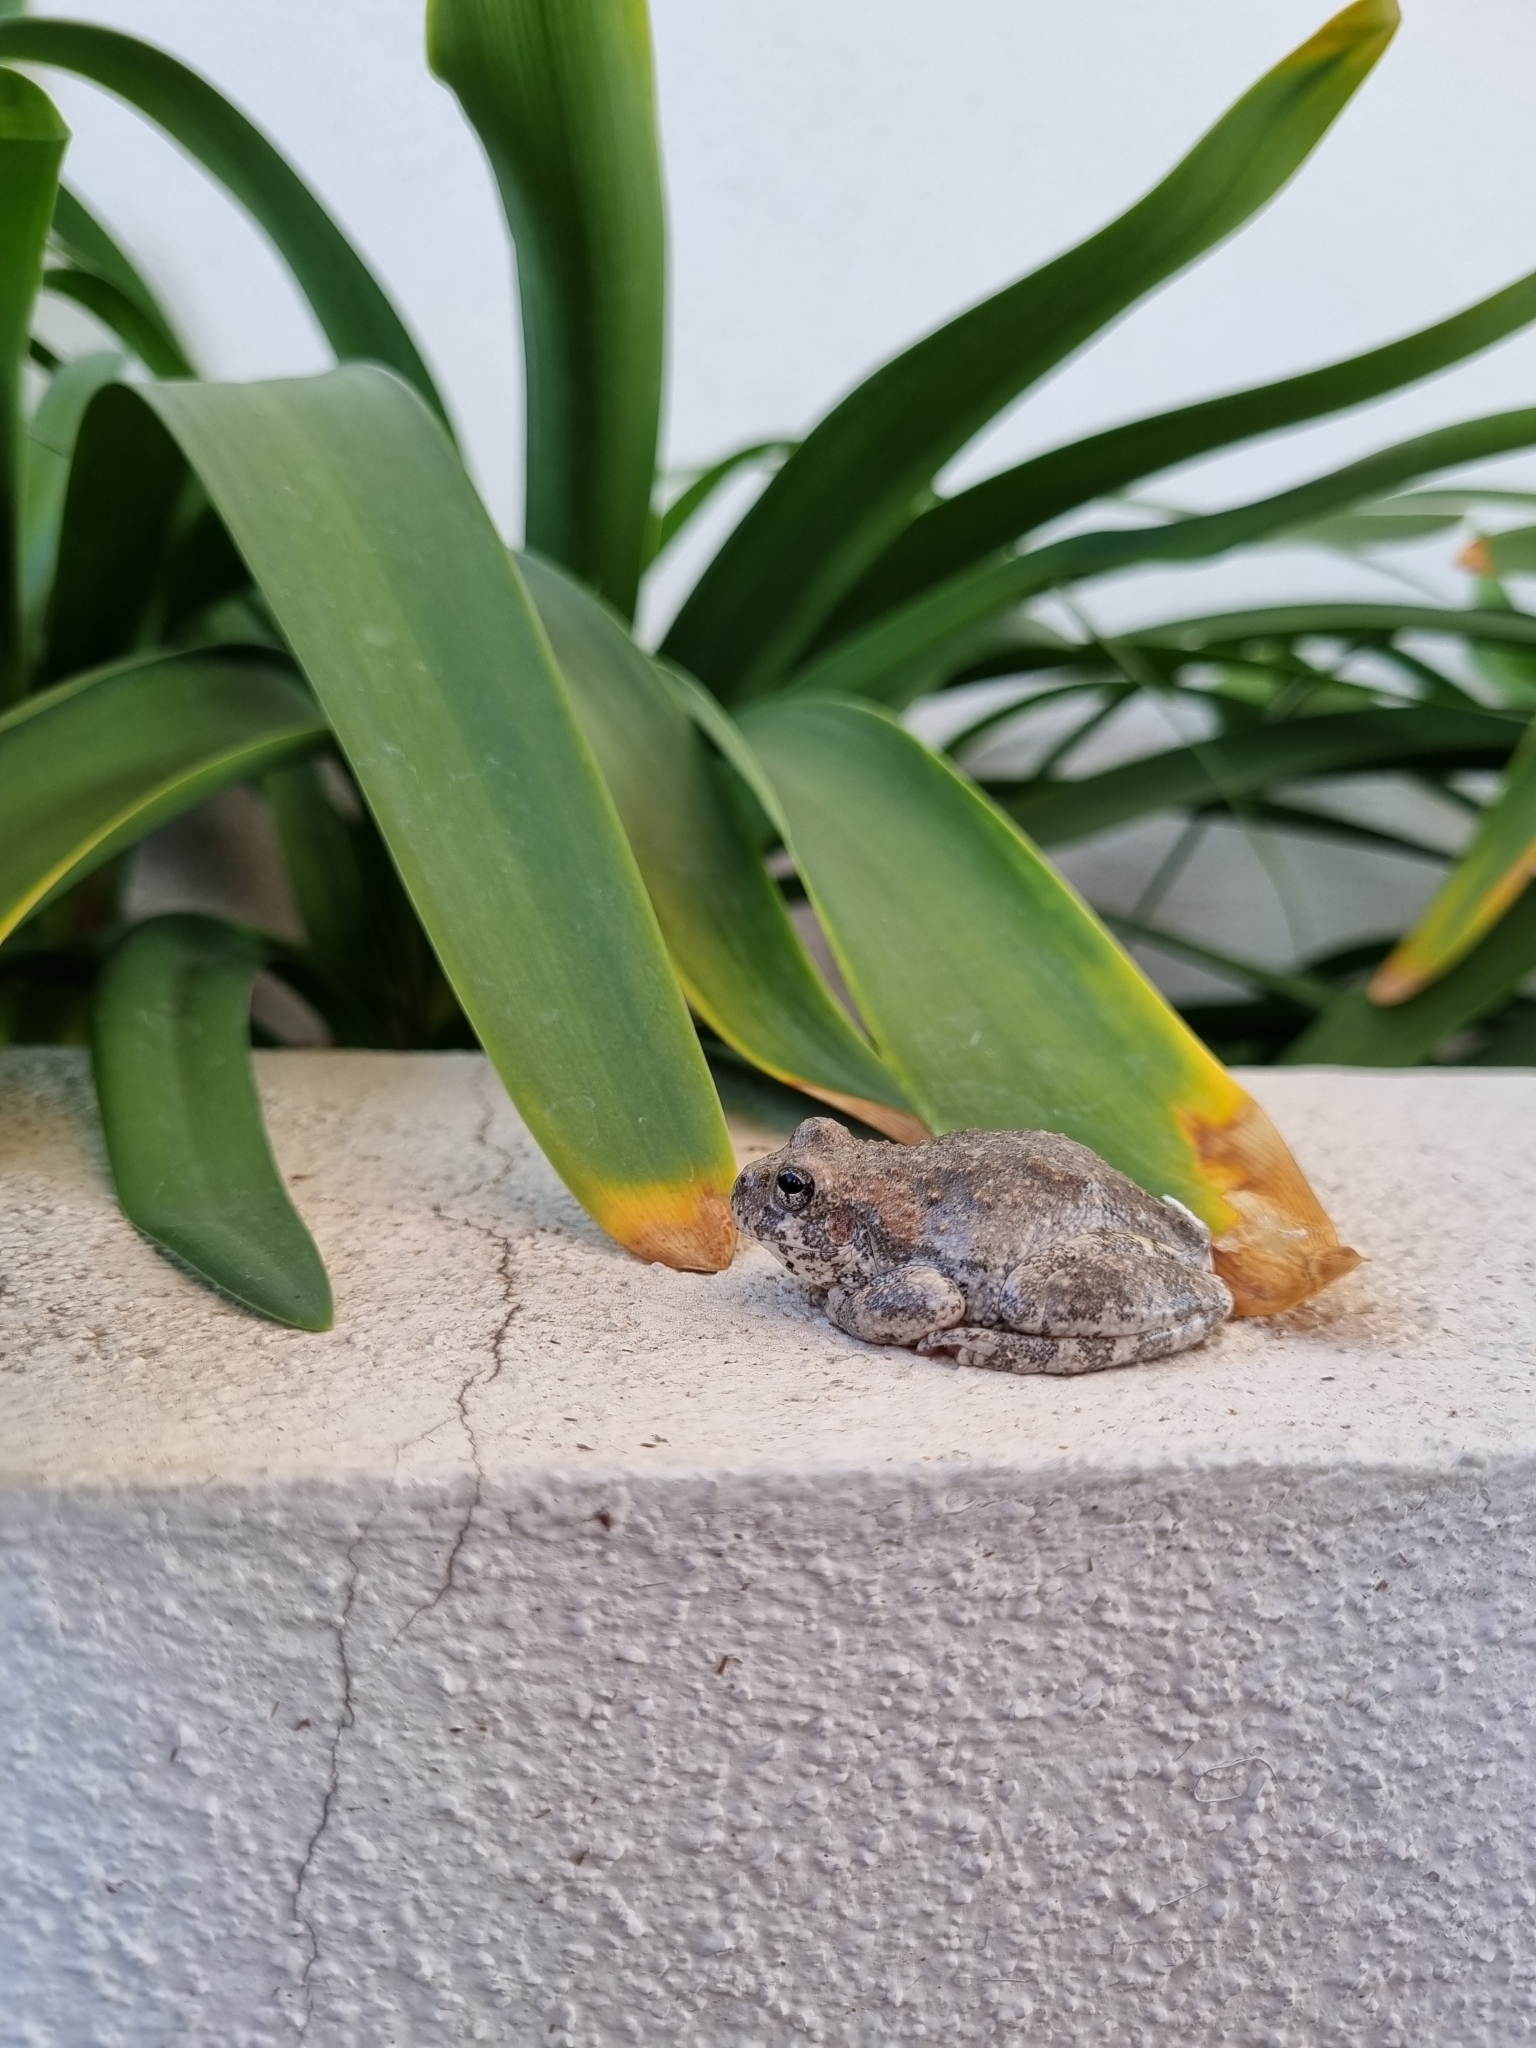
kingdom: Animalia
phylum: Chordata
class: Amphibia
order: Anura
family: Hylidae
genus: Dryophytes
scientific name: Dryophytes arenicolor
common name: Canyon treefrog
